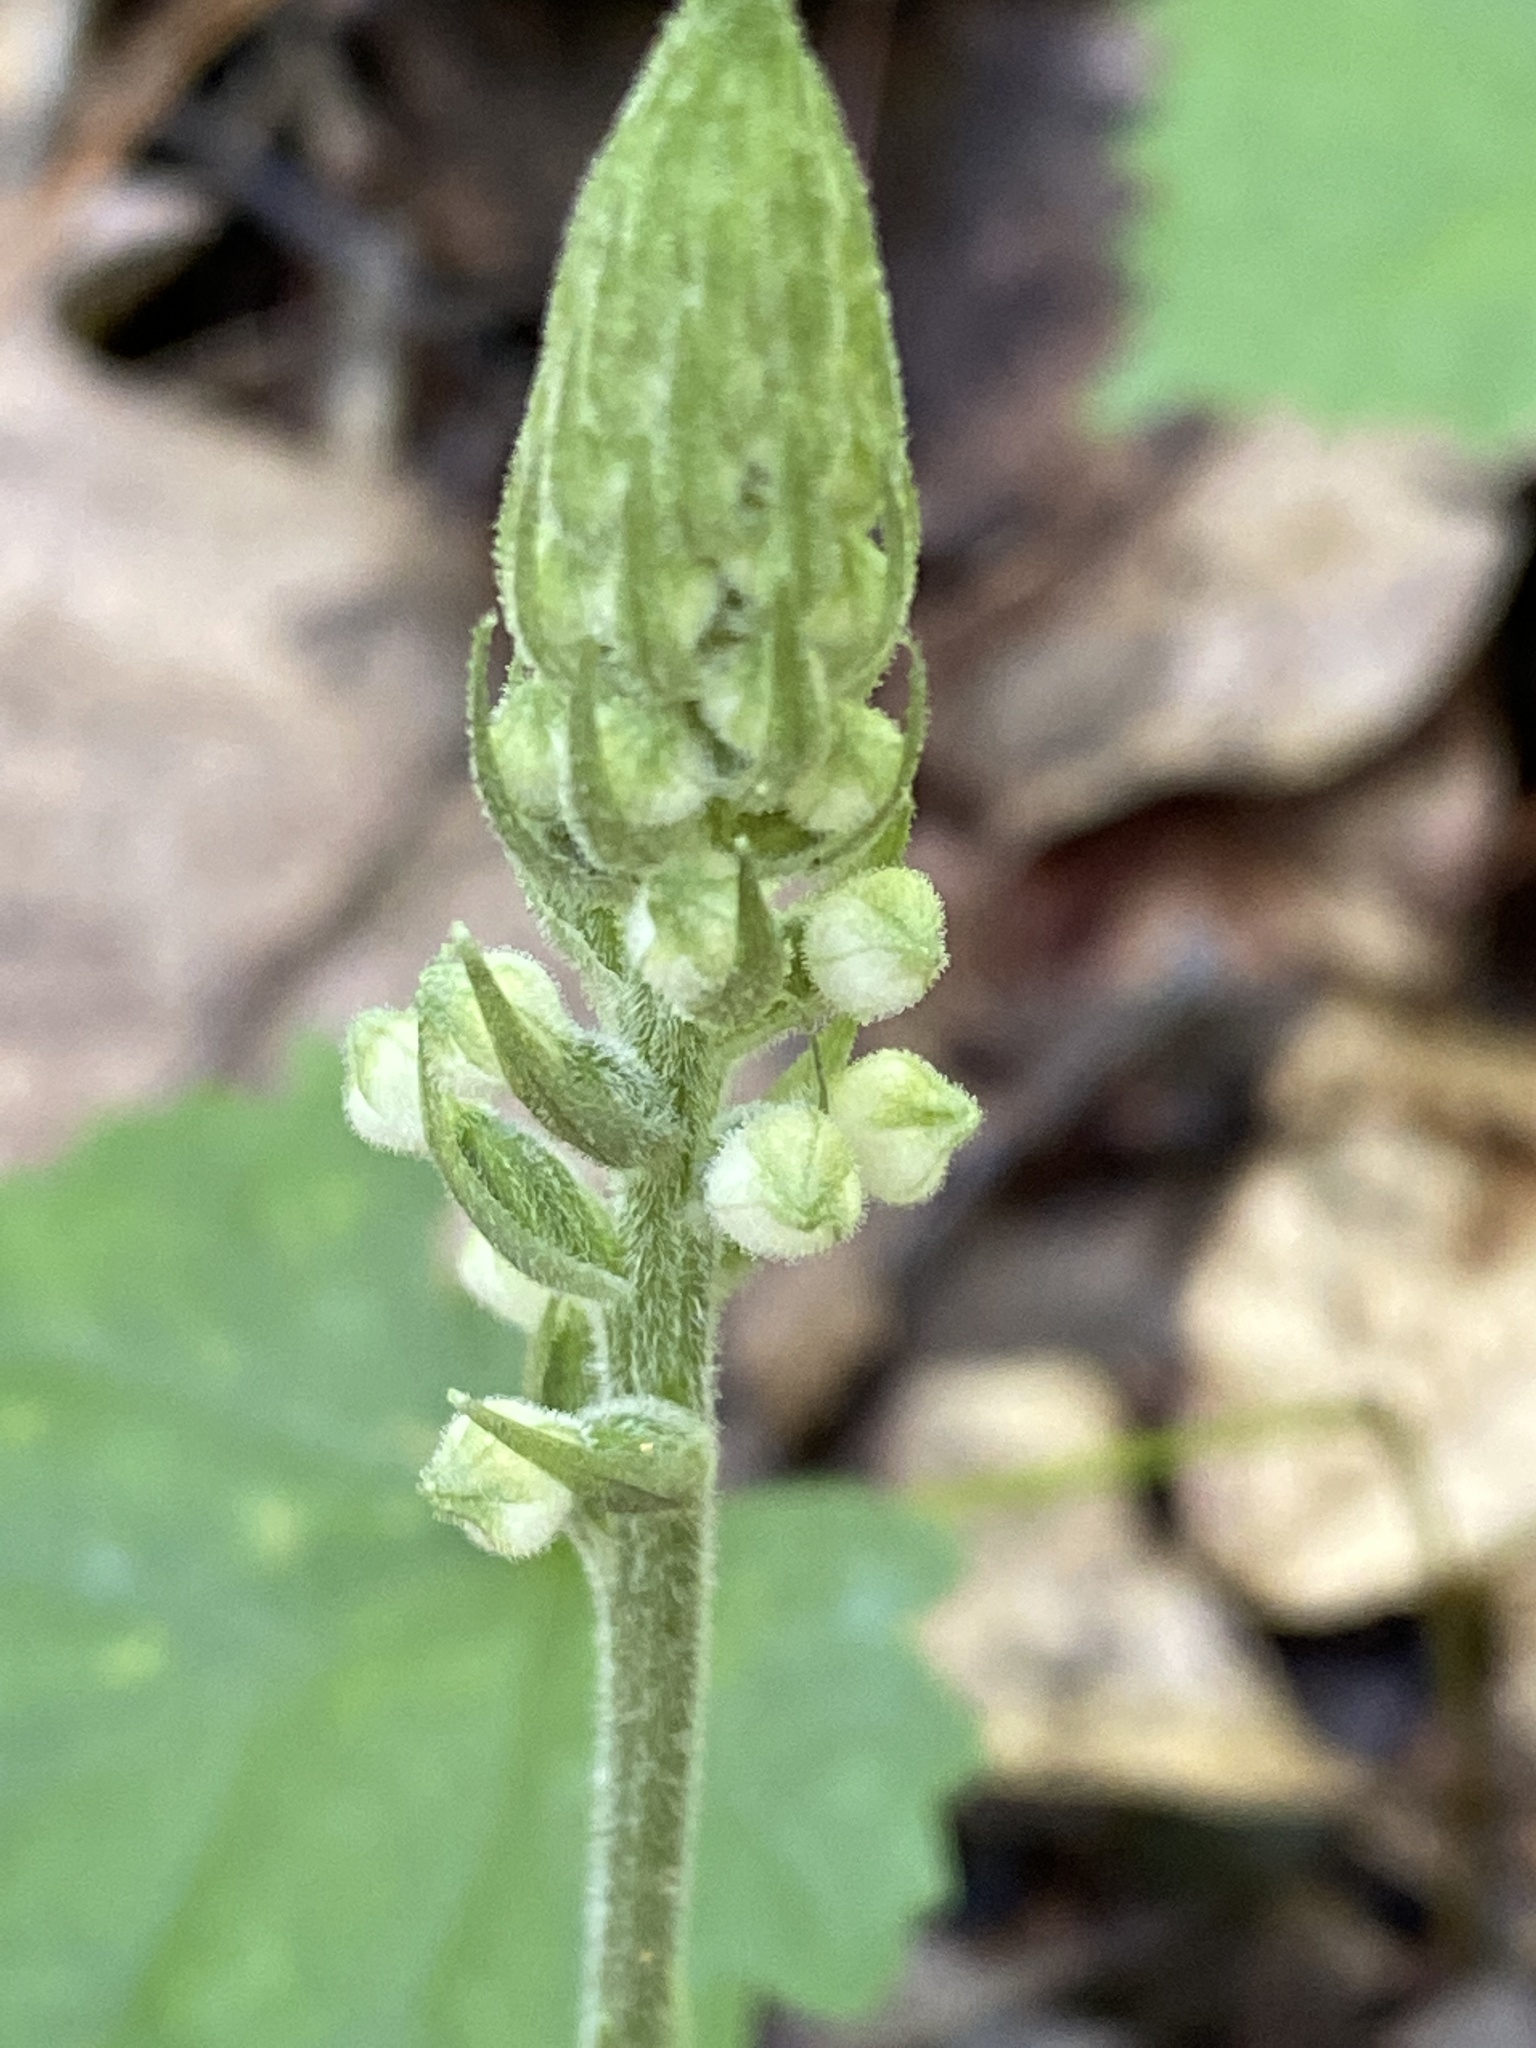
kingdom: Plantae
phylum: Tracheophyta
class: Liliopsida
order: Asparagales
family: Orchidaceae
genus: Goodyera
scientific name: Goodyera pubescens
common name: Downy rattlesnake-plantain
